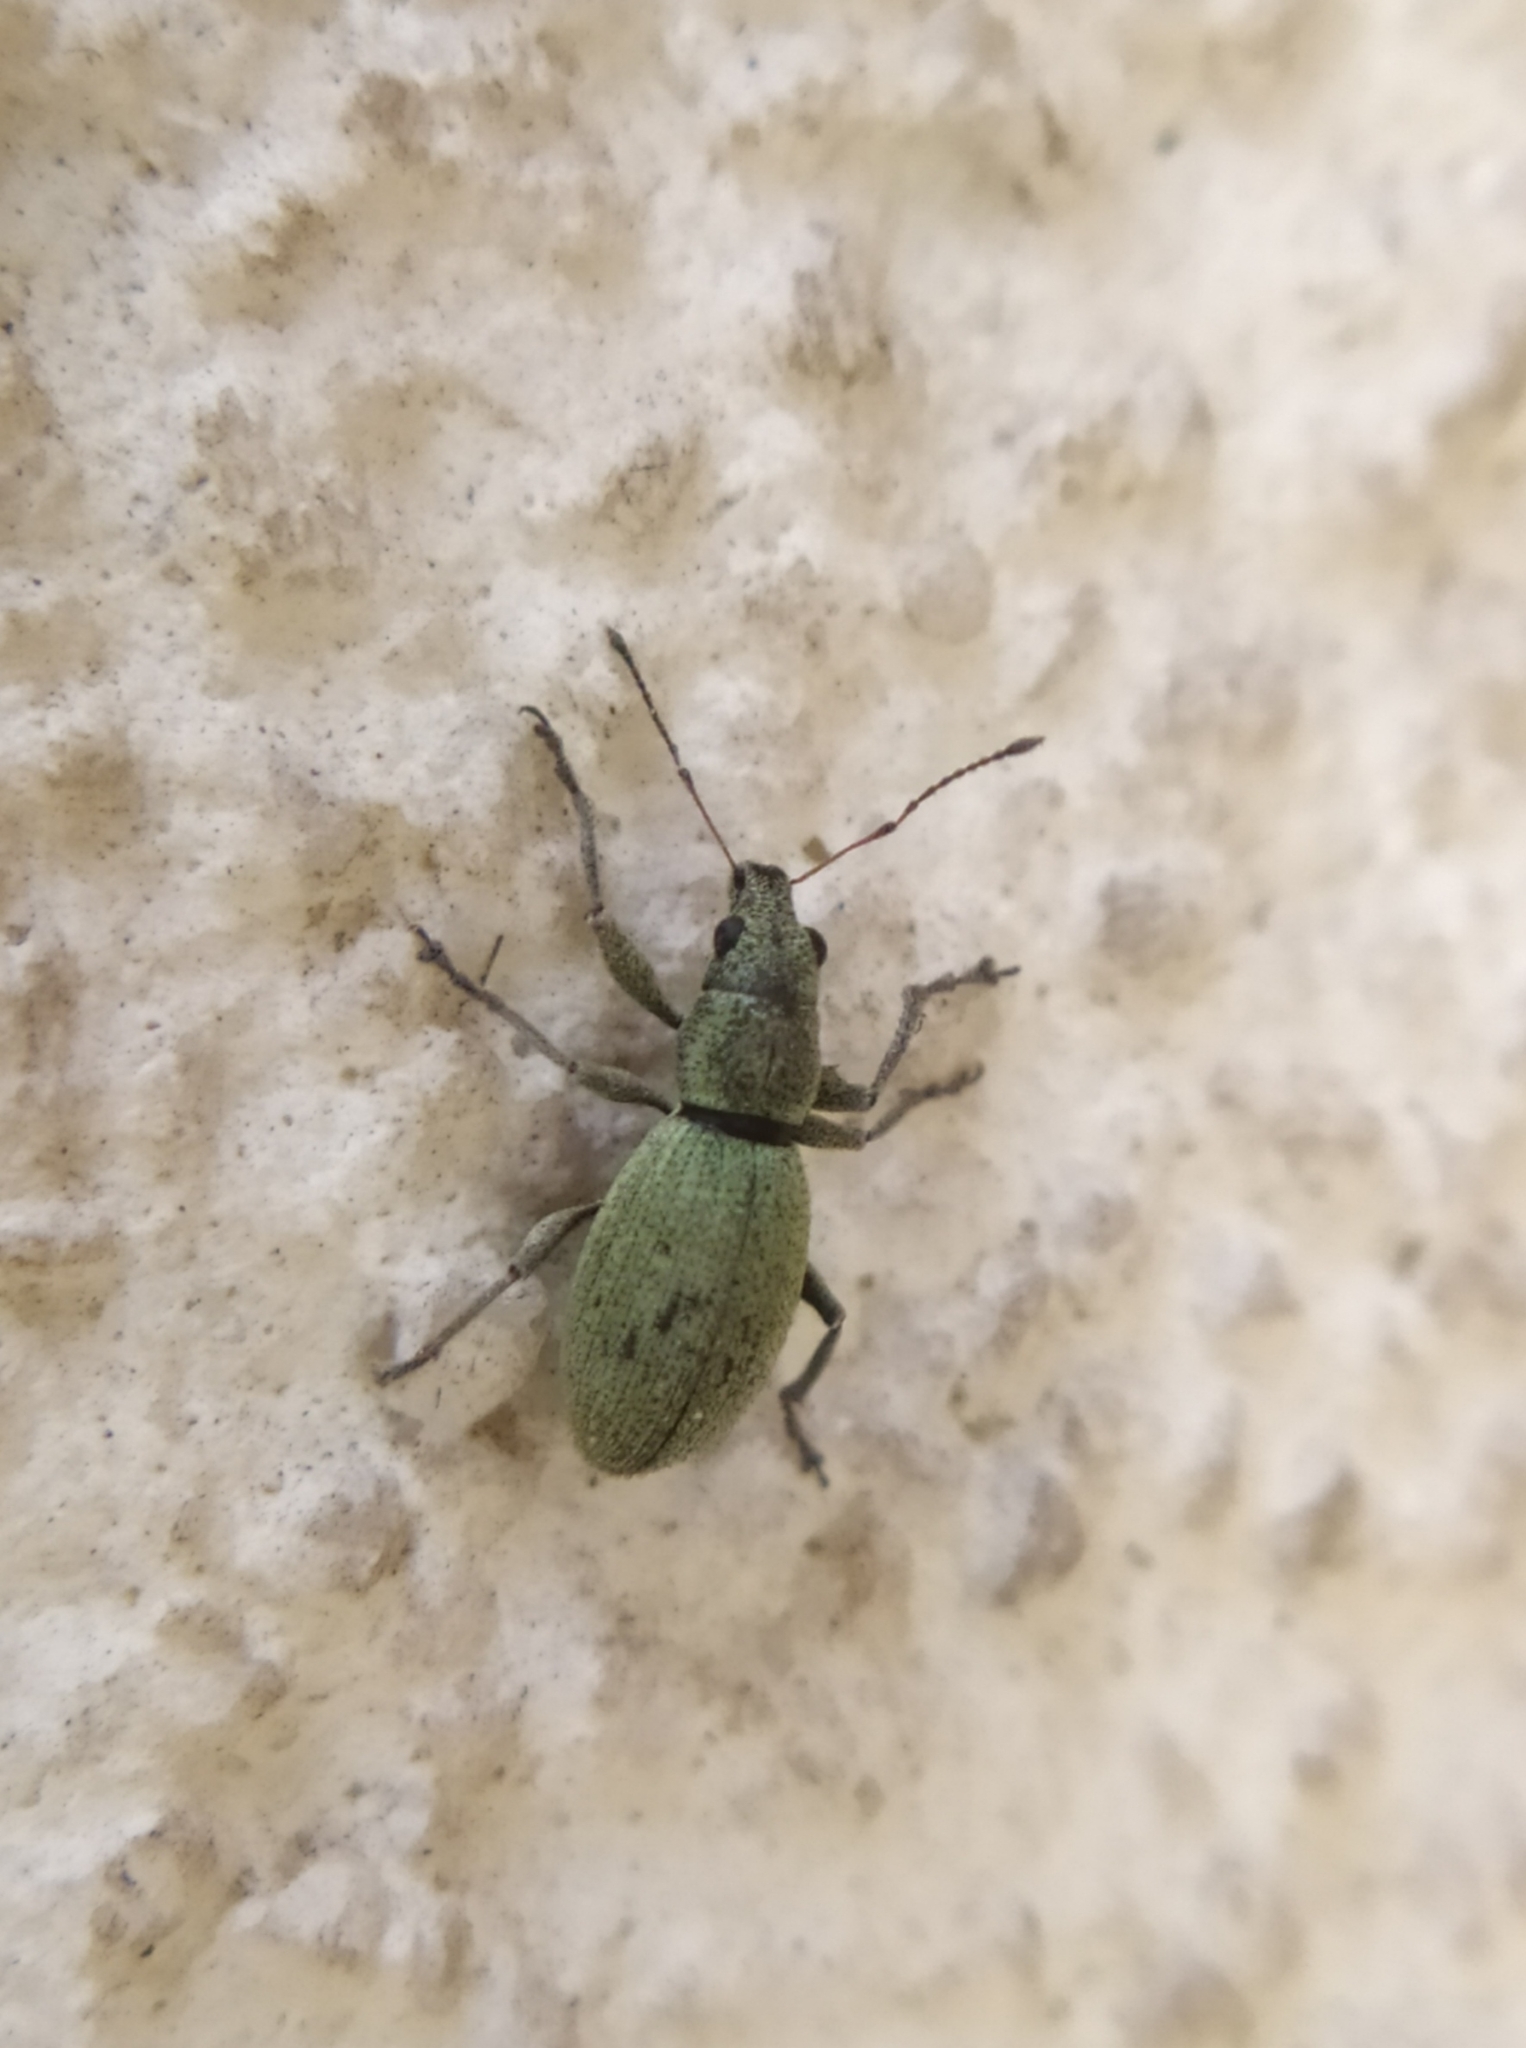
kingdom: Animalia
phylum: Arthropoda
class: Insecta
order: Coleoptera
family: Curculionidae
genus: Eusomus
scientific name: Eusomus ovulum
